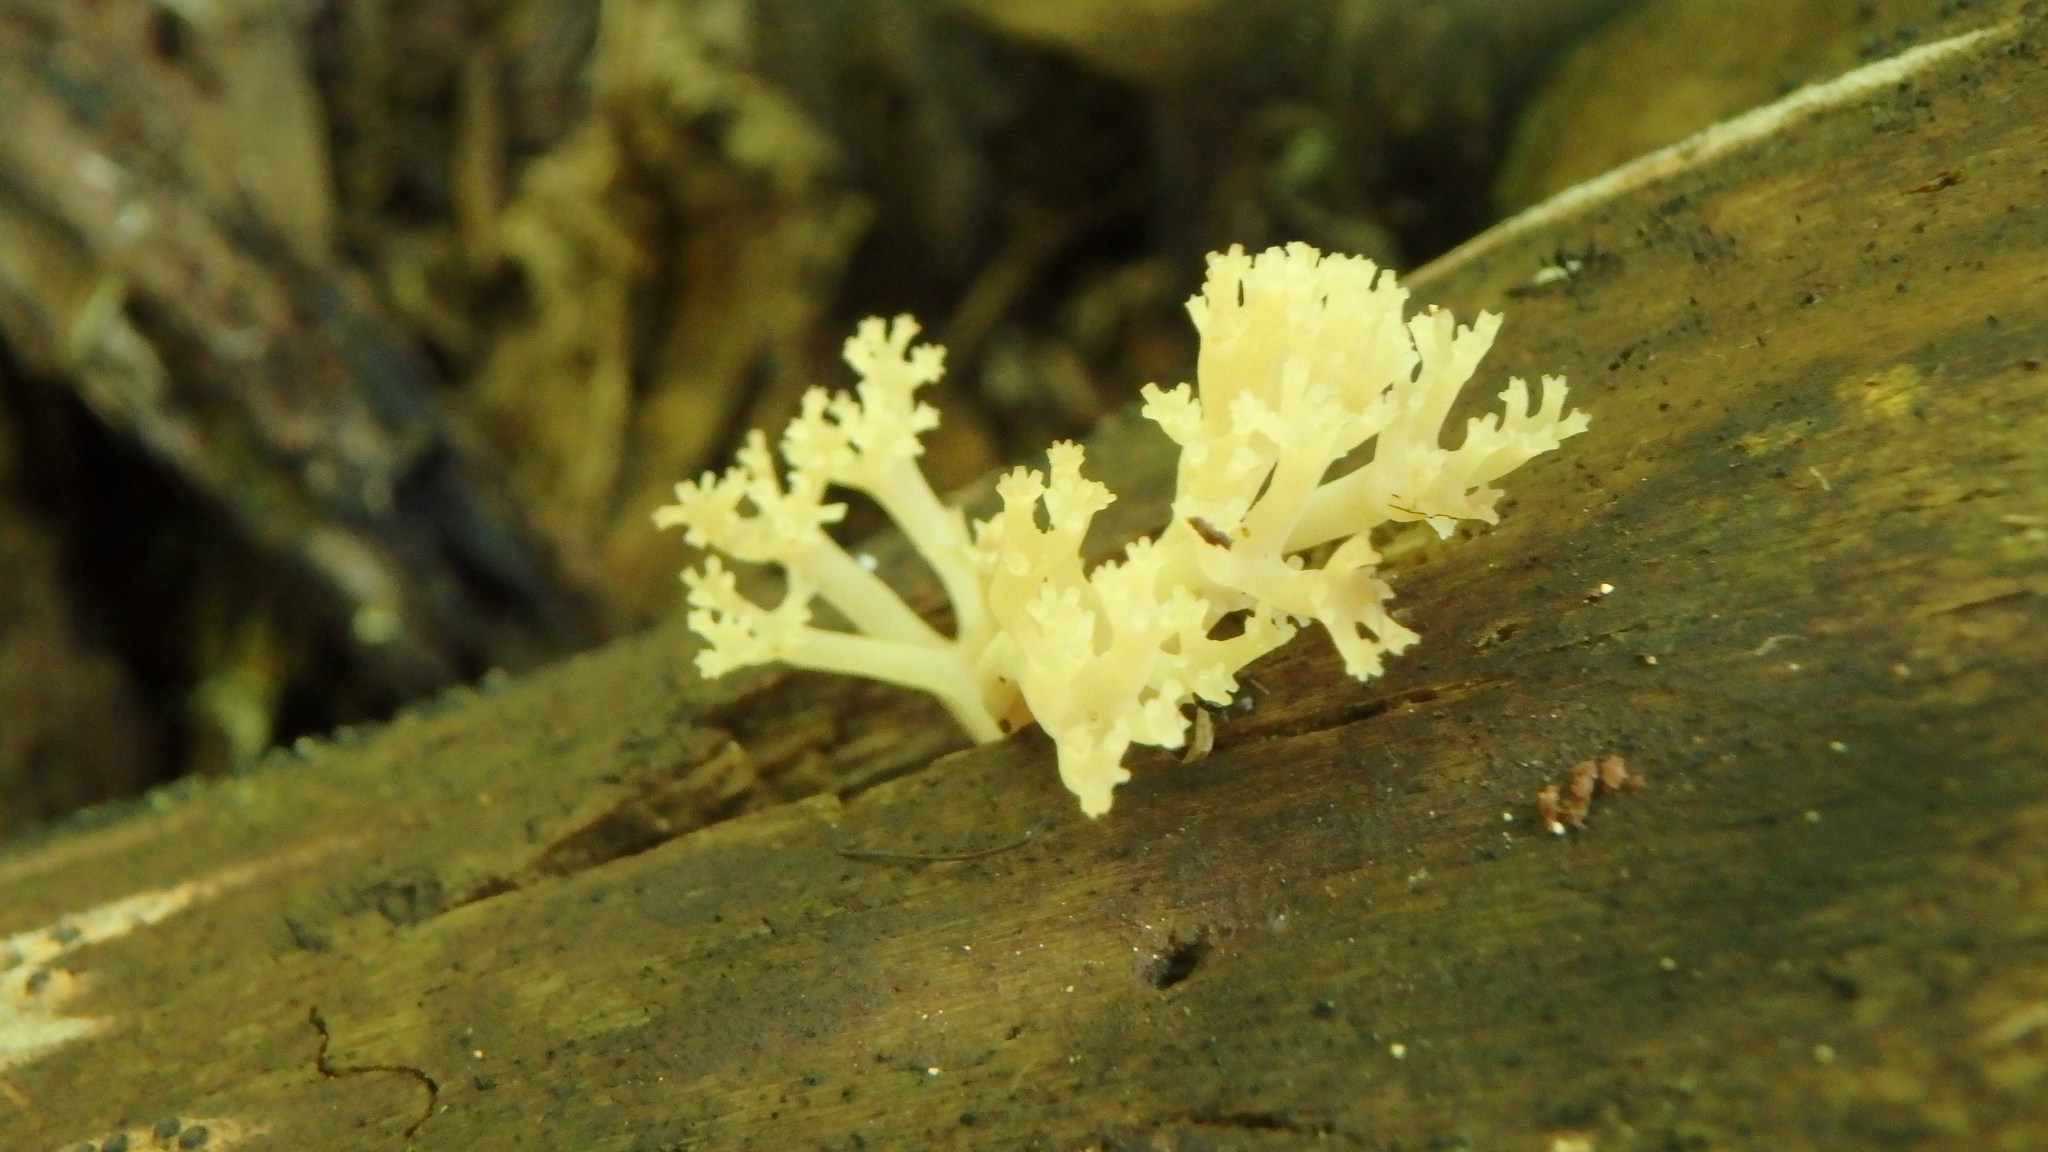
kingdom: Fungi
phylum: Basidiomycota
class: Agaricomycetes
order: Russulales
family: Auriscalpiaceae
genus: Artomyces
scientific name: Artomyces pyxidatus
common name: Crown-tipped coral fungus
